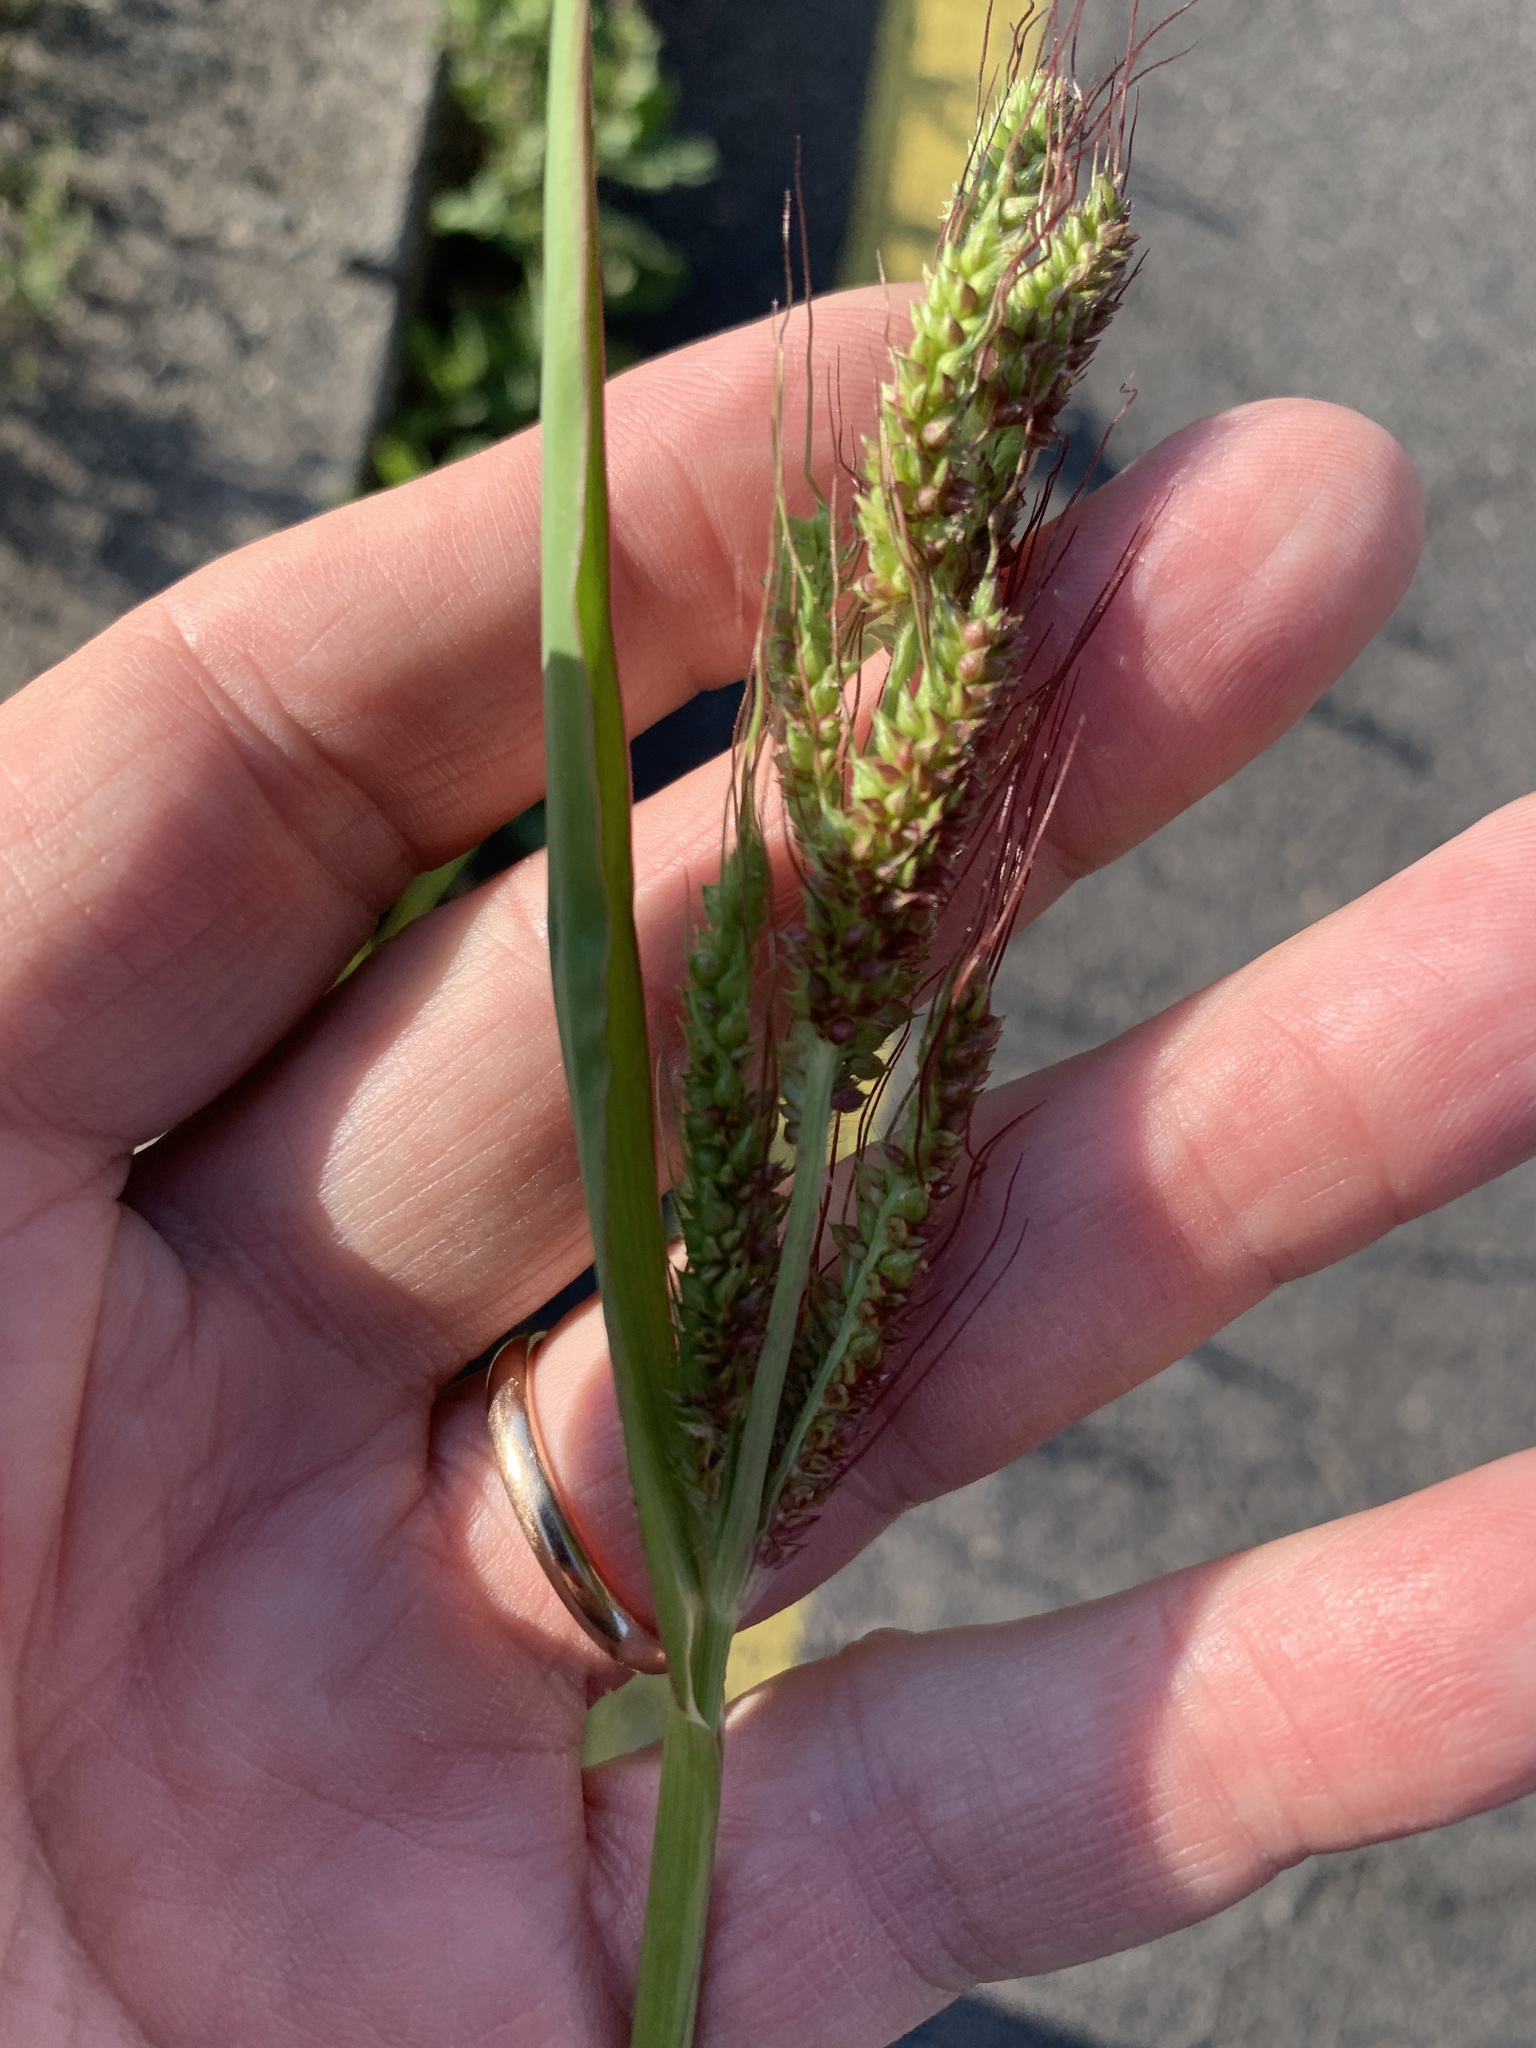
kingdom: Plantae
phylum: Tracheophyta
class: Liliopsida
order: Poales
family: Poaceae
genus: Echinochloa
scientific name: Echinochloa crus-galli
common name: Cockspur
